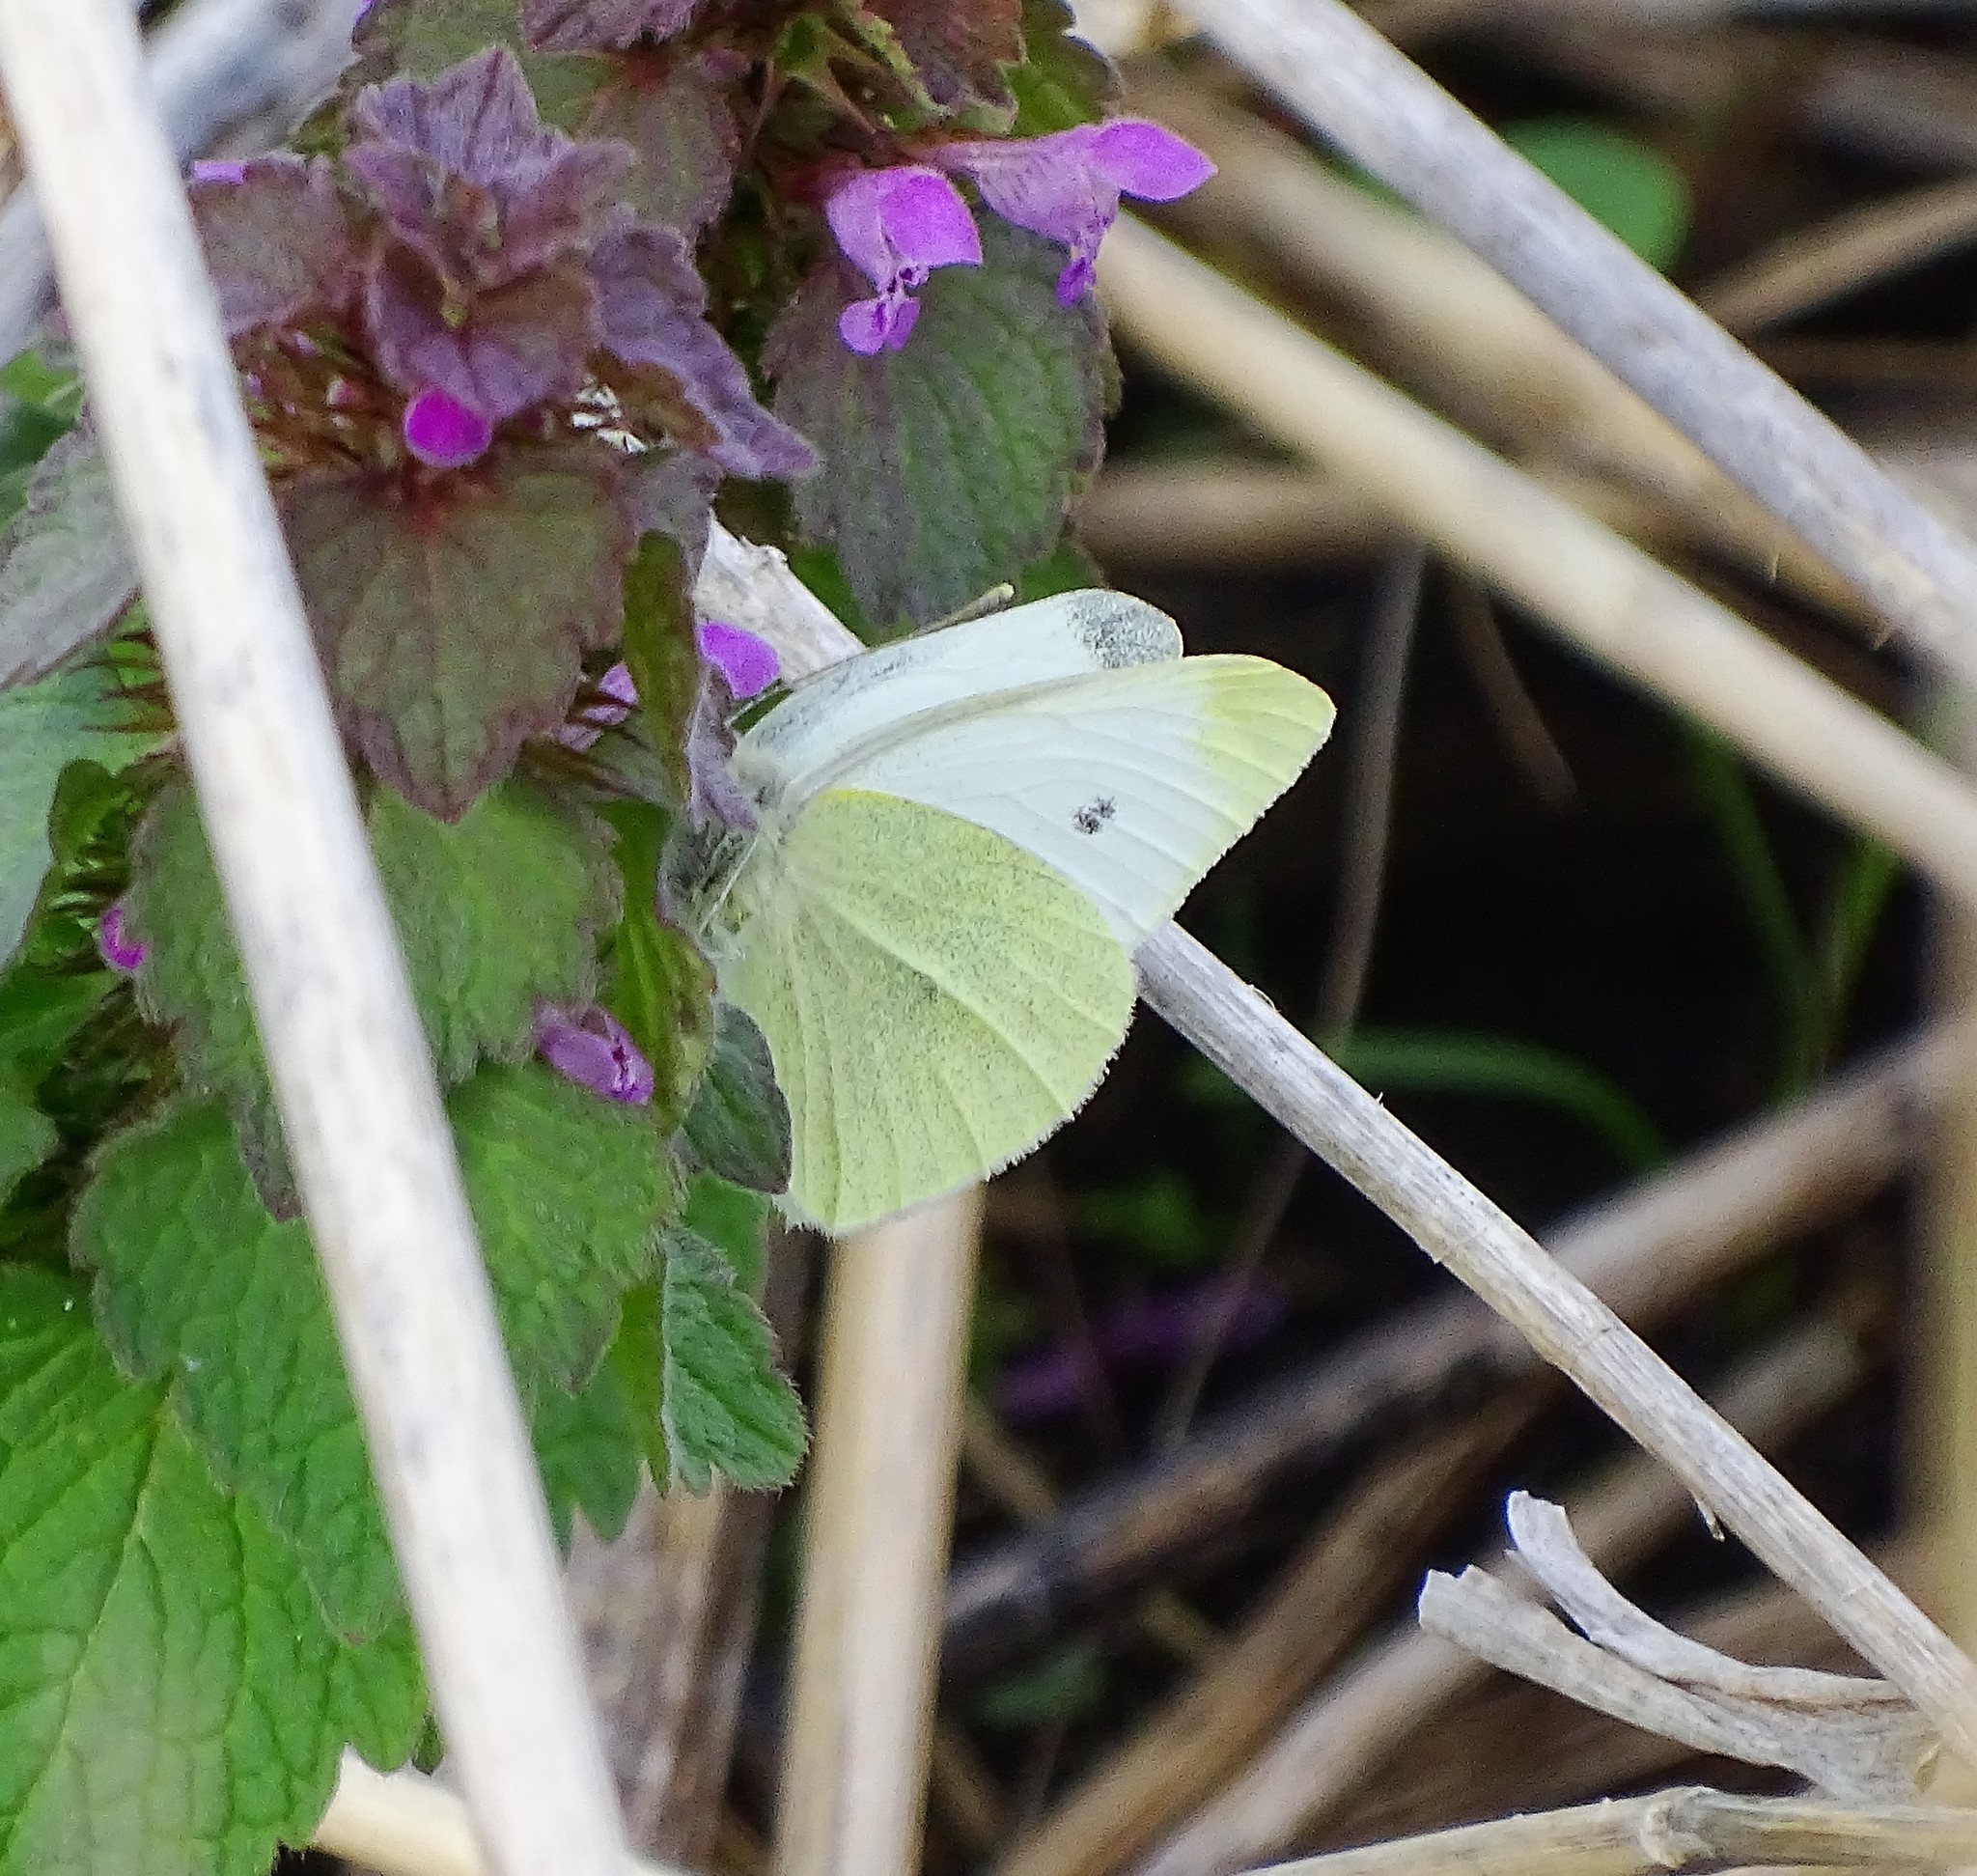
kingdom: Animalia
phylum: Arthropoda
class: Insecta
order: Lepidoptera
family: Pieridae
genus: Pieris
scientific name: Pieris rapae
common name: Small white
